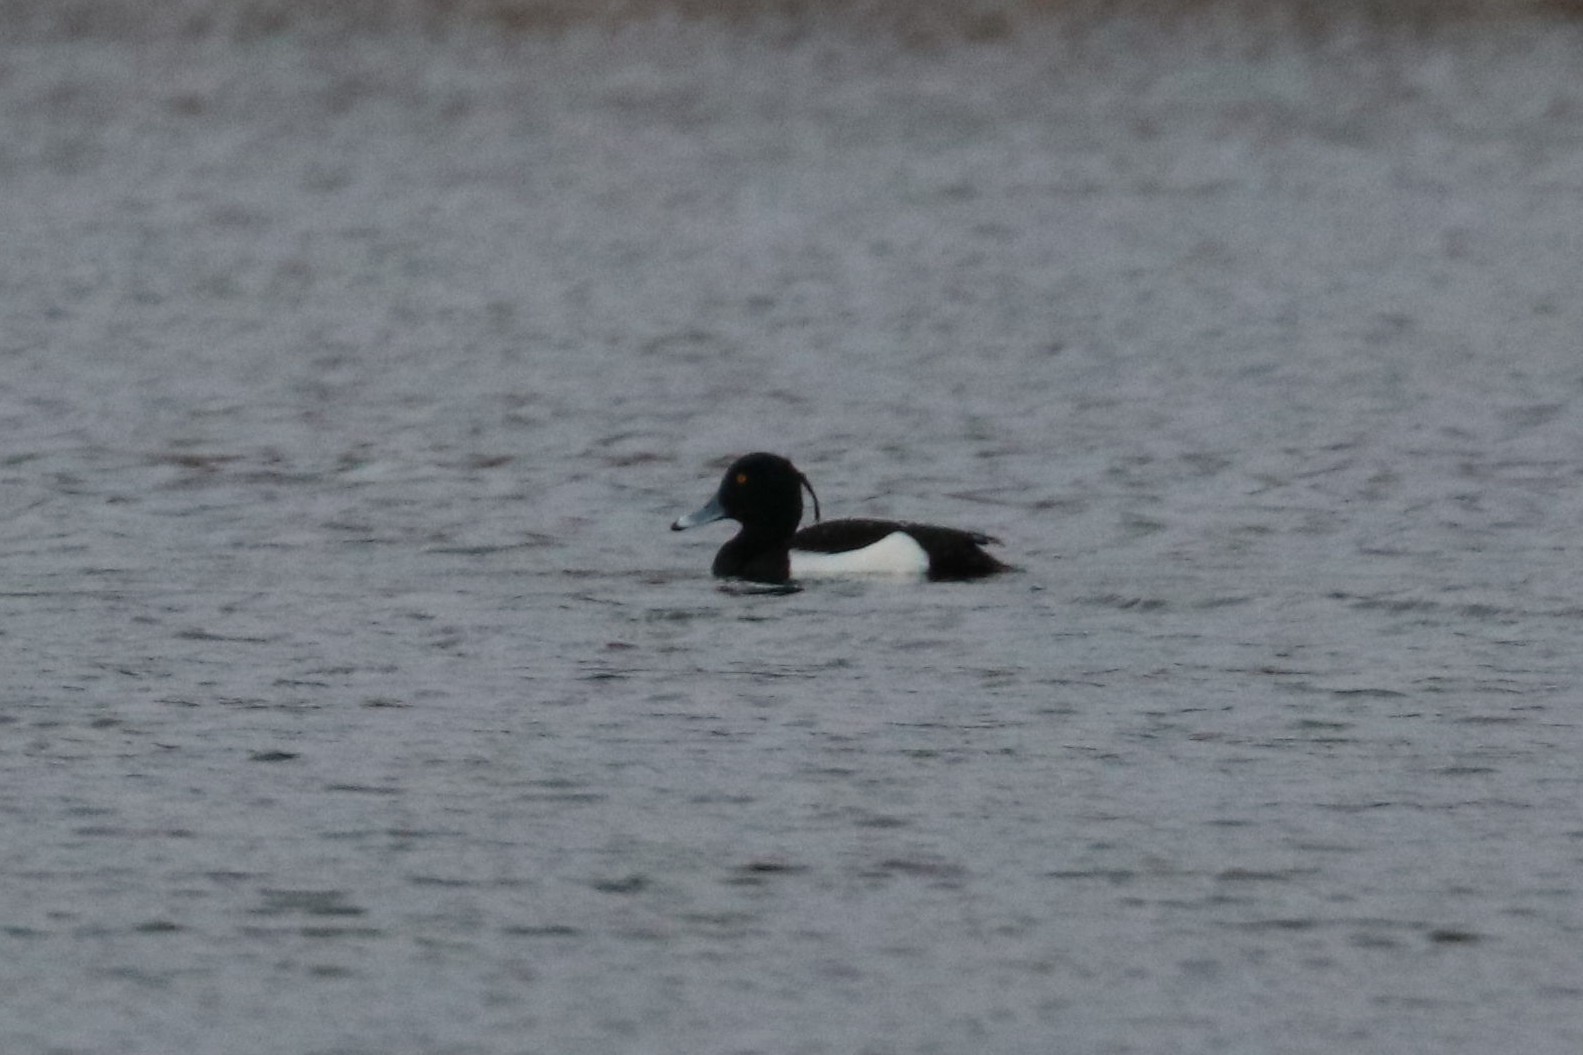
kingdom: Animalia
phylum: Chordata
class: Aves
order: Anseriformes
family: Anatidae
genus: Aythya
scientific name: Aythya fuligula
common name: Tufted duck
